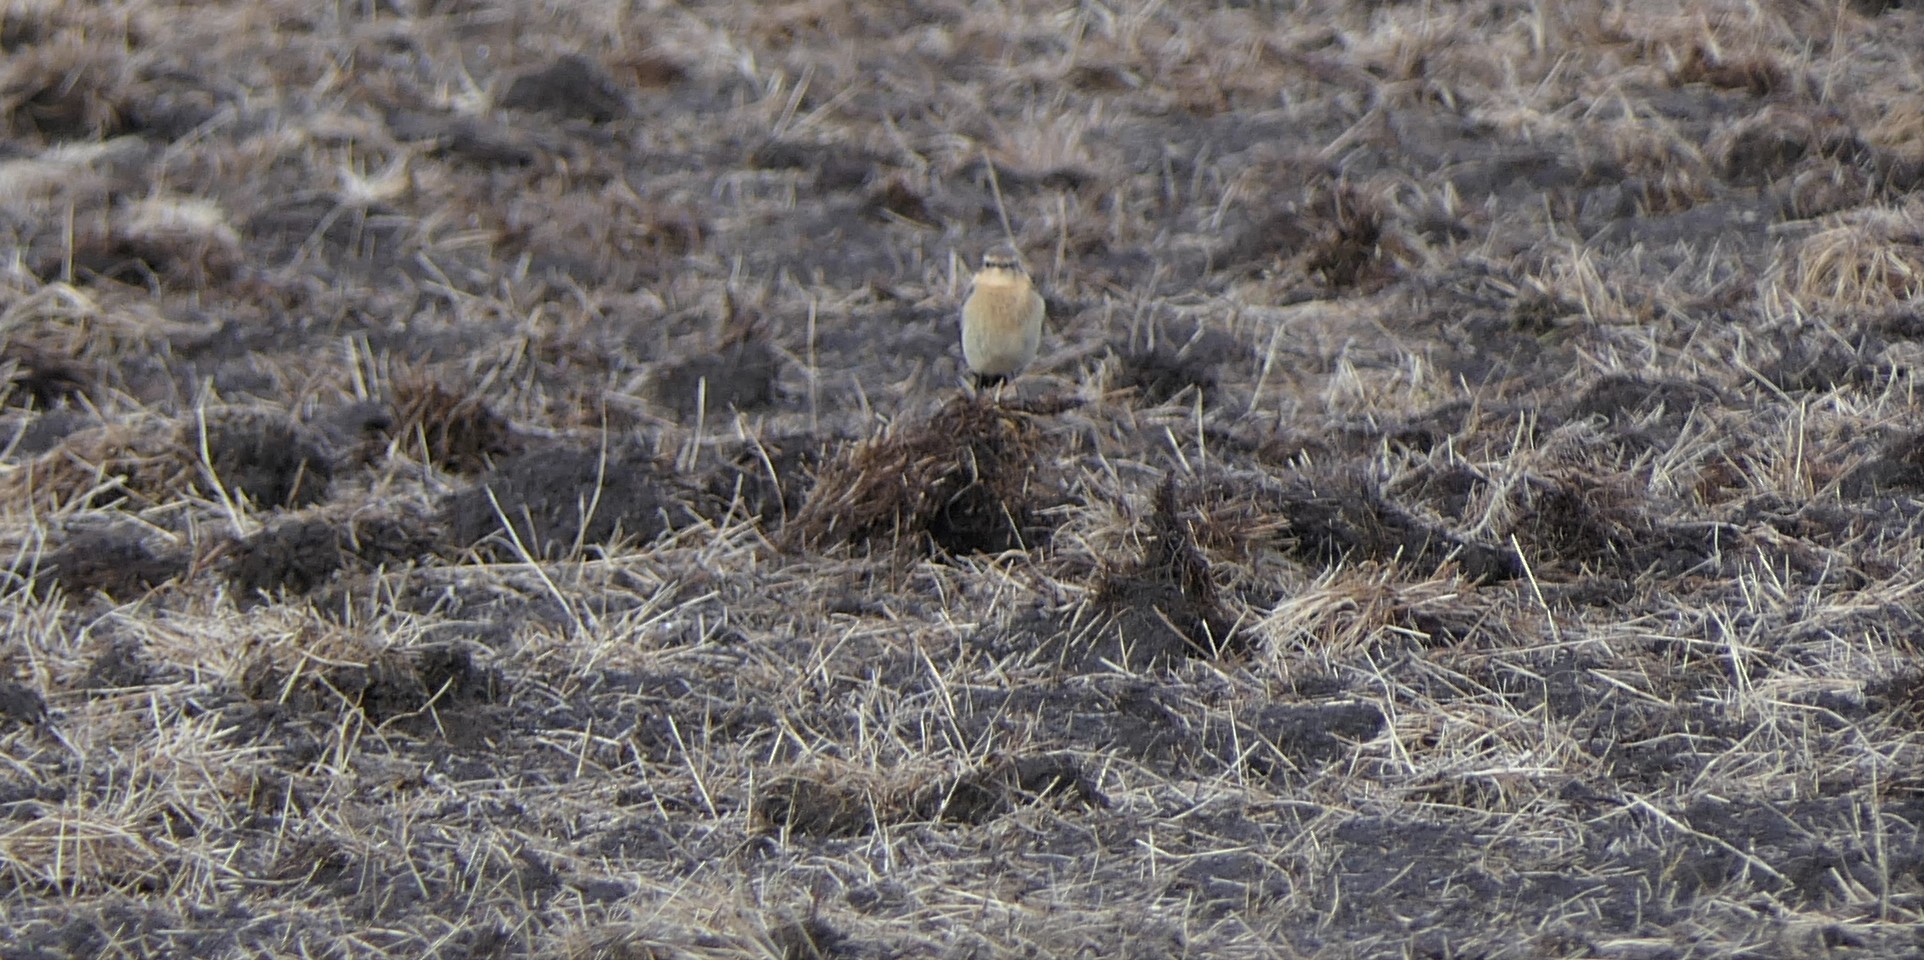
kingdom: Animalia
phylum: Chordata
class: Aves
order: Passeriformes
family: Muscicapidae
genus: Oenanthe
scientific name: Oenanthe oenanthe
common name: Northern wheatear
